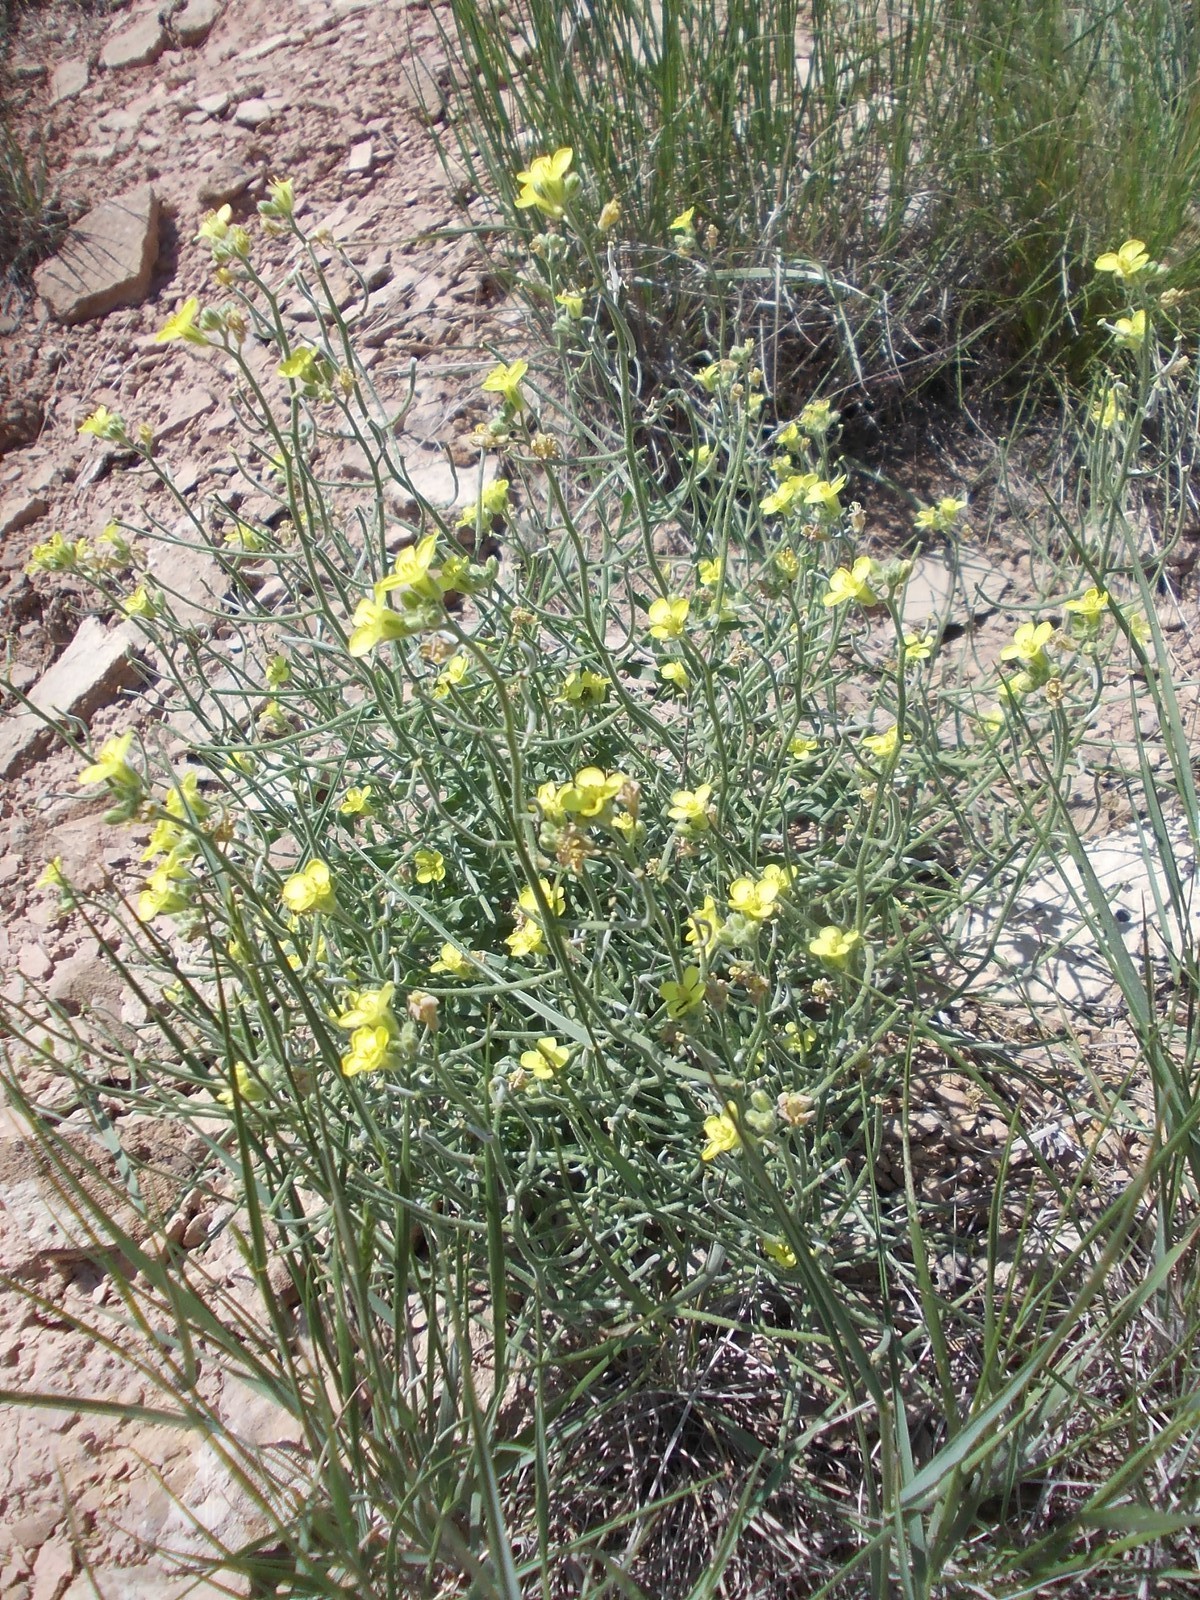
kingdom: Plantae
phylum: Tracheophyta
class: Magnoliopsida
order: Brassicales
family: Brassicaceae
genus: Sterigmostemum
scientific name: Sterigmostemum caspicum
